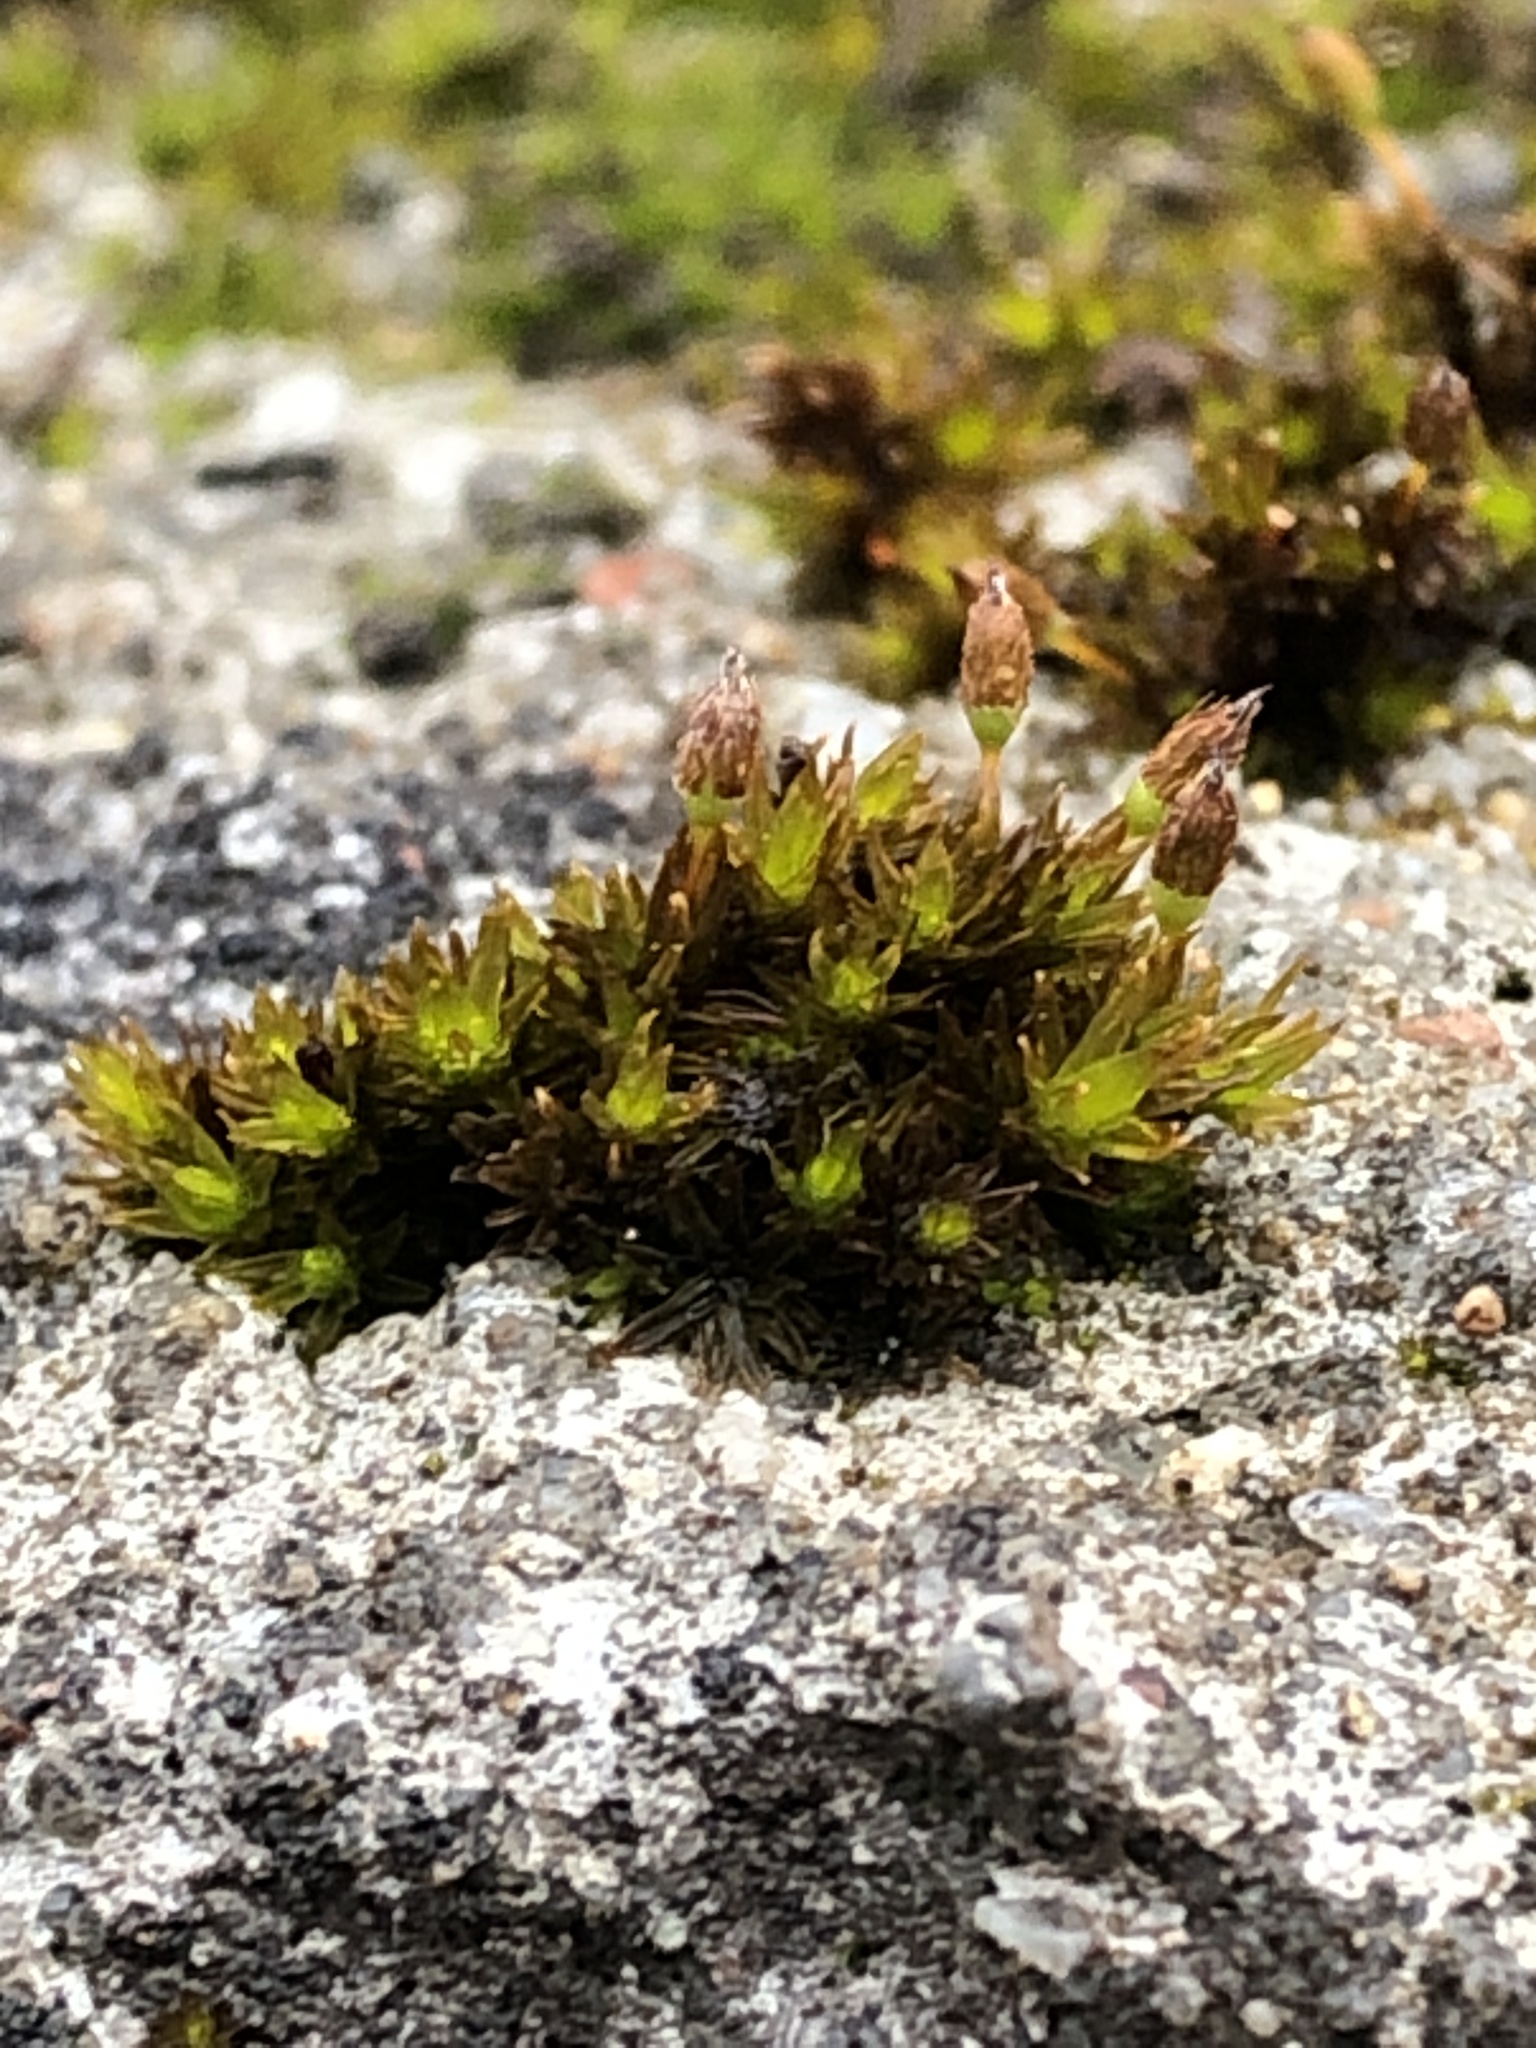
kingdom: Plantae
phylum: Bryophyta
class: Bryopsida
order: Orthotrichales
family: Orthotrichaceae
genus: Orthotrichum
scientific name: Orthotrichum anomalum
